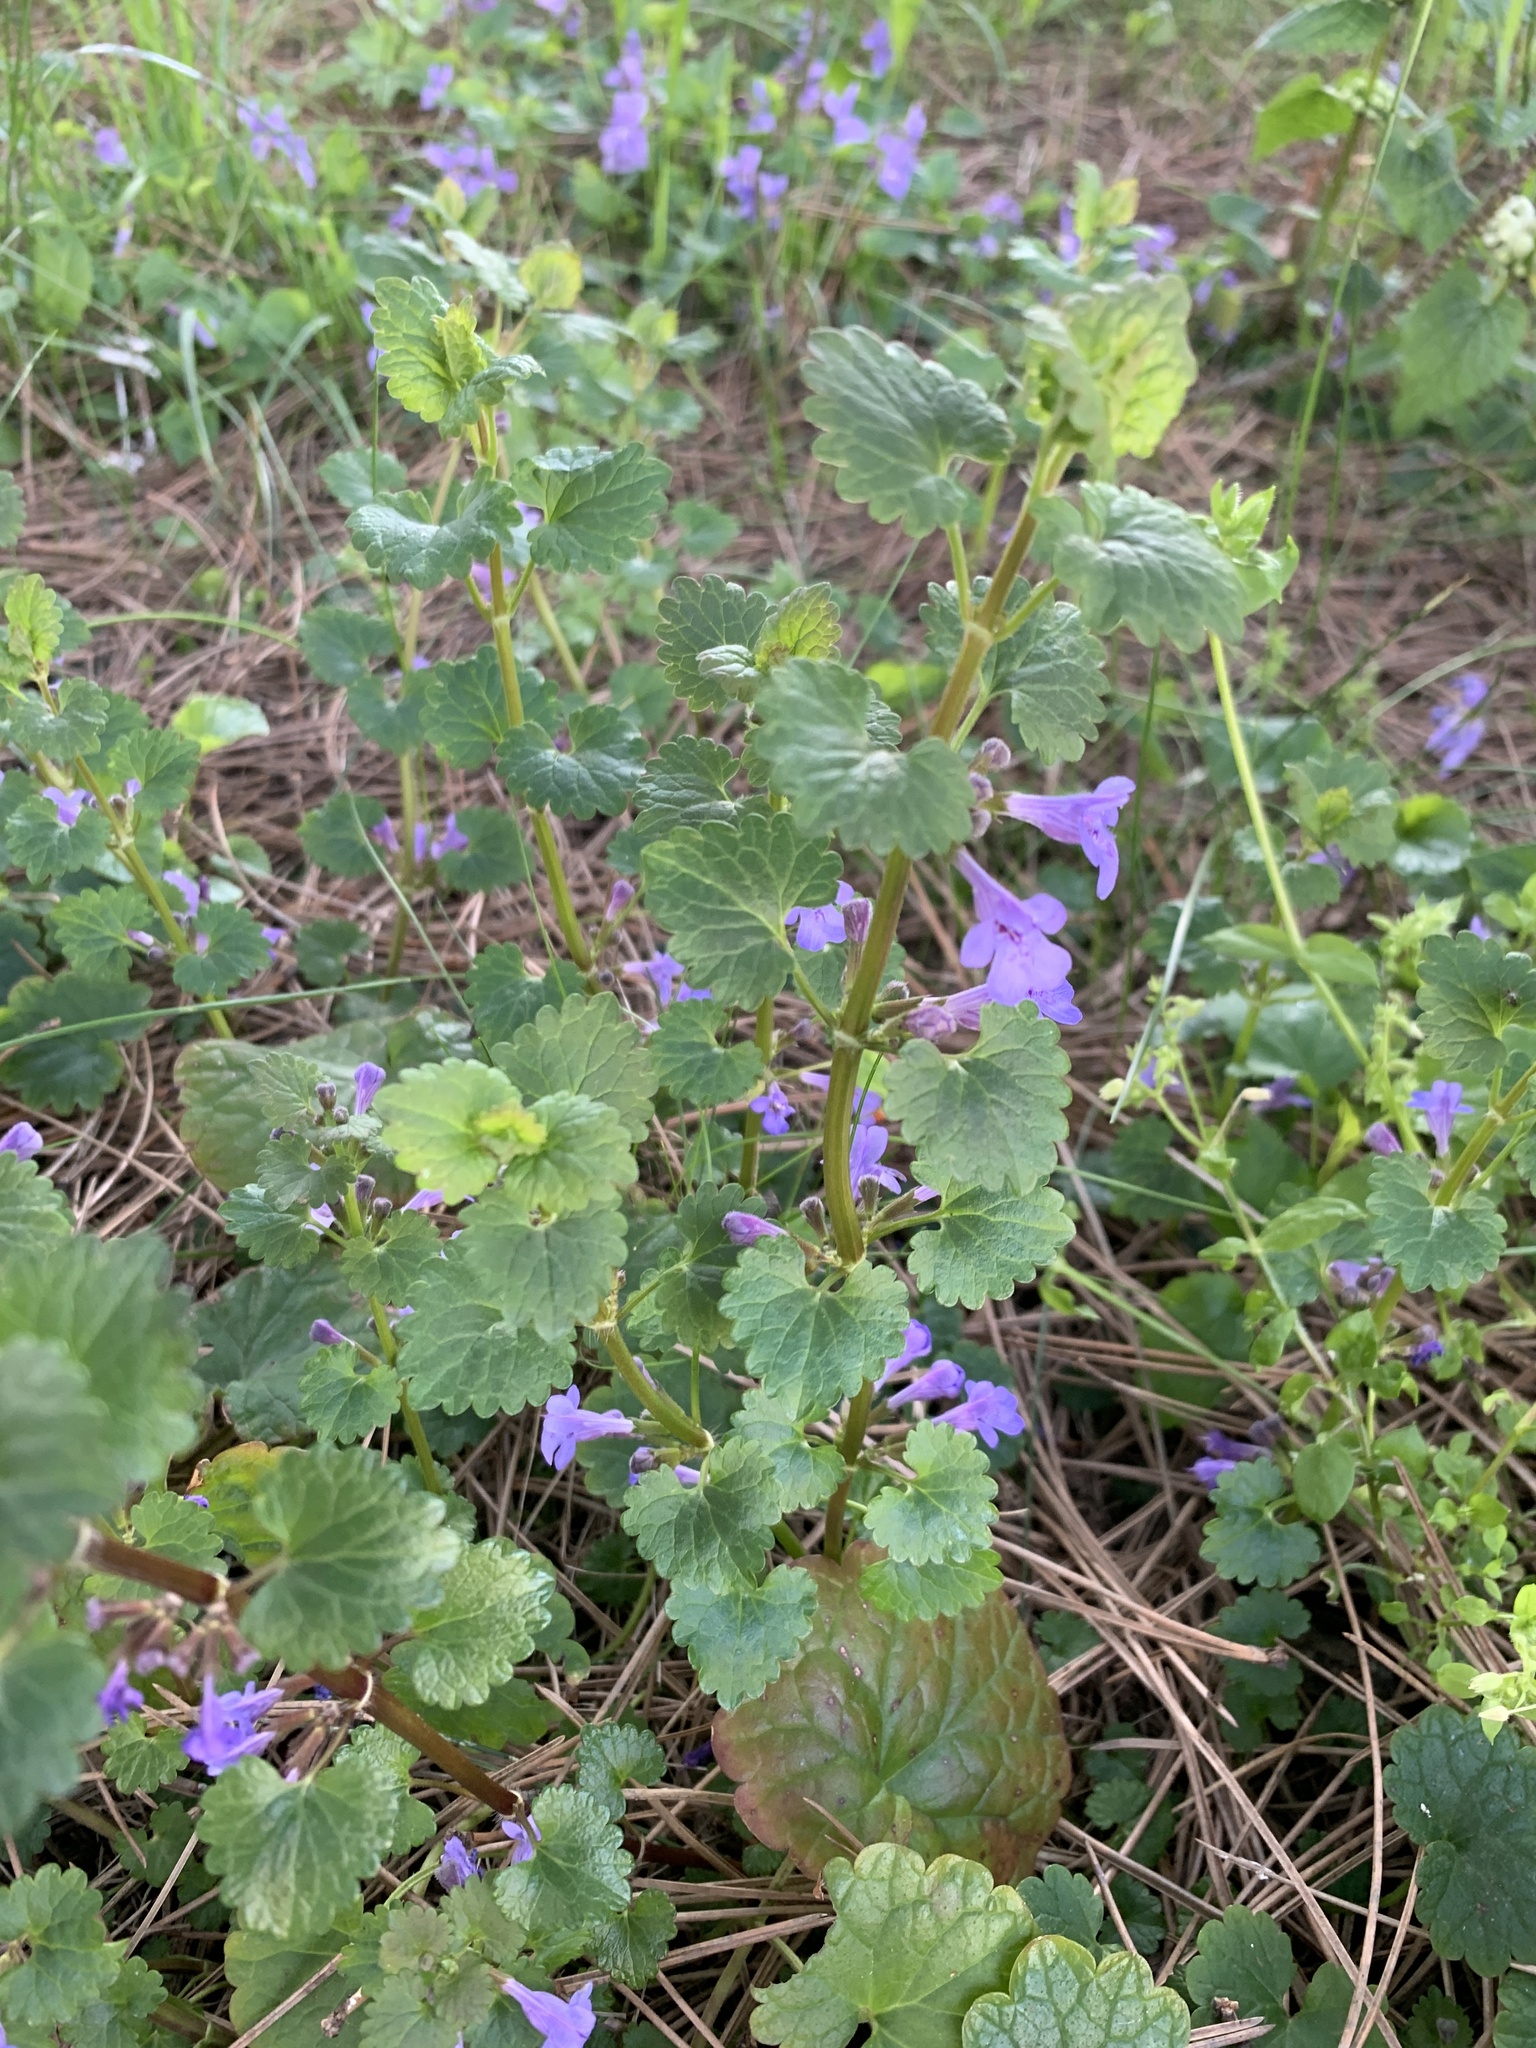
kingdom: Plantae
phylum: Tracheophyta
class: Magnoliopsida
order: Lamiales
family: Lamiaceae
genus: Glechoma
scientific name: Glechoma hederacea
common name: Ground ivy
